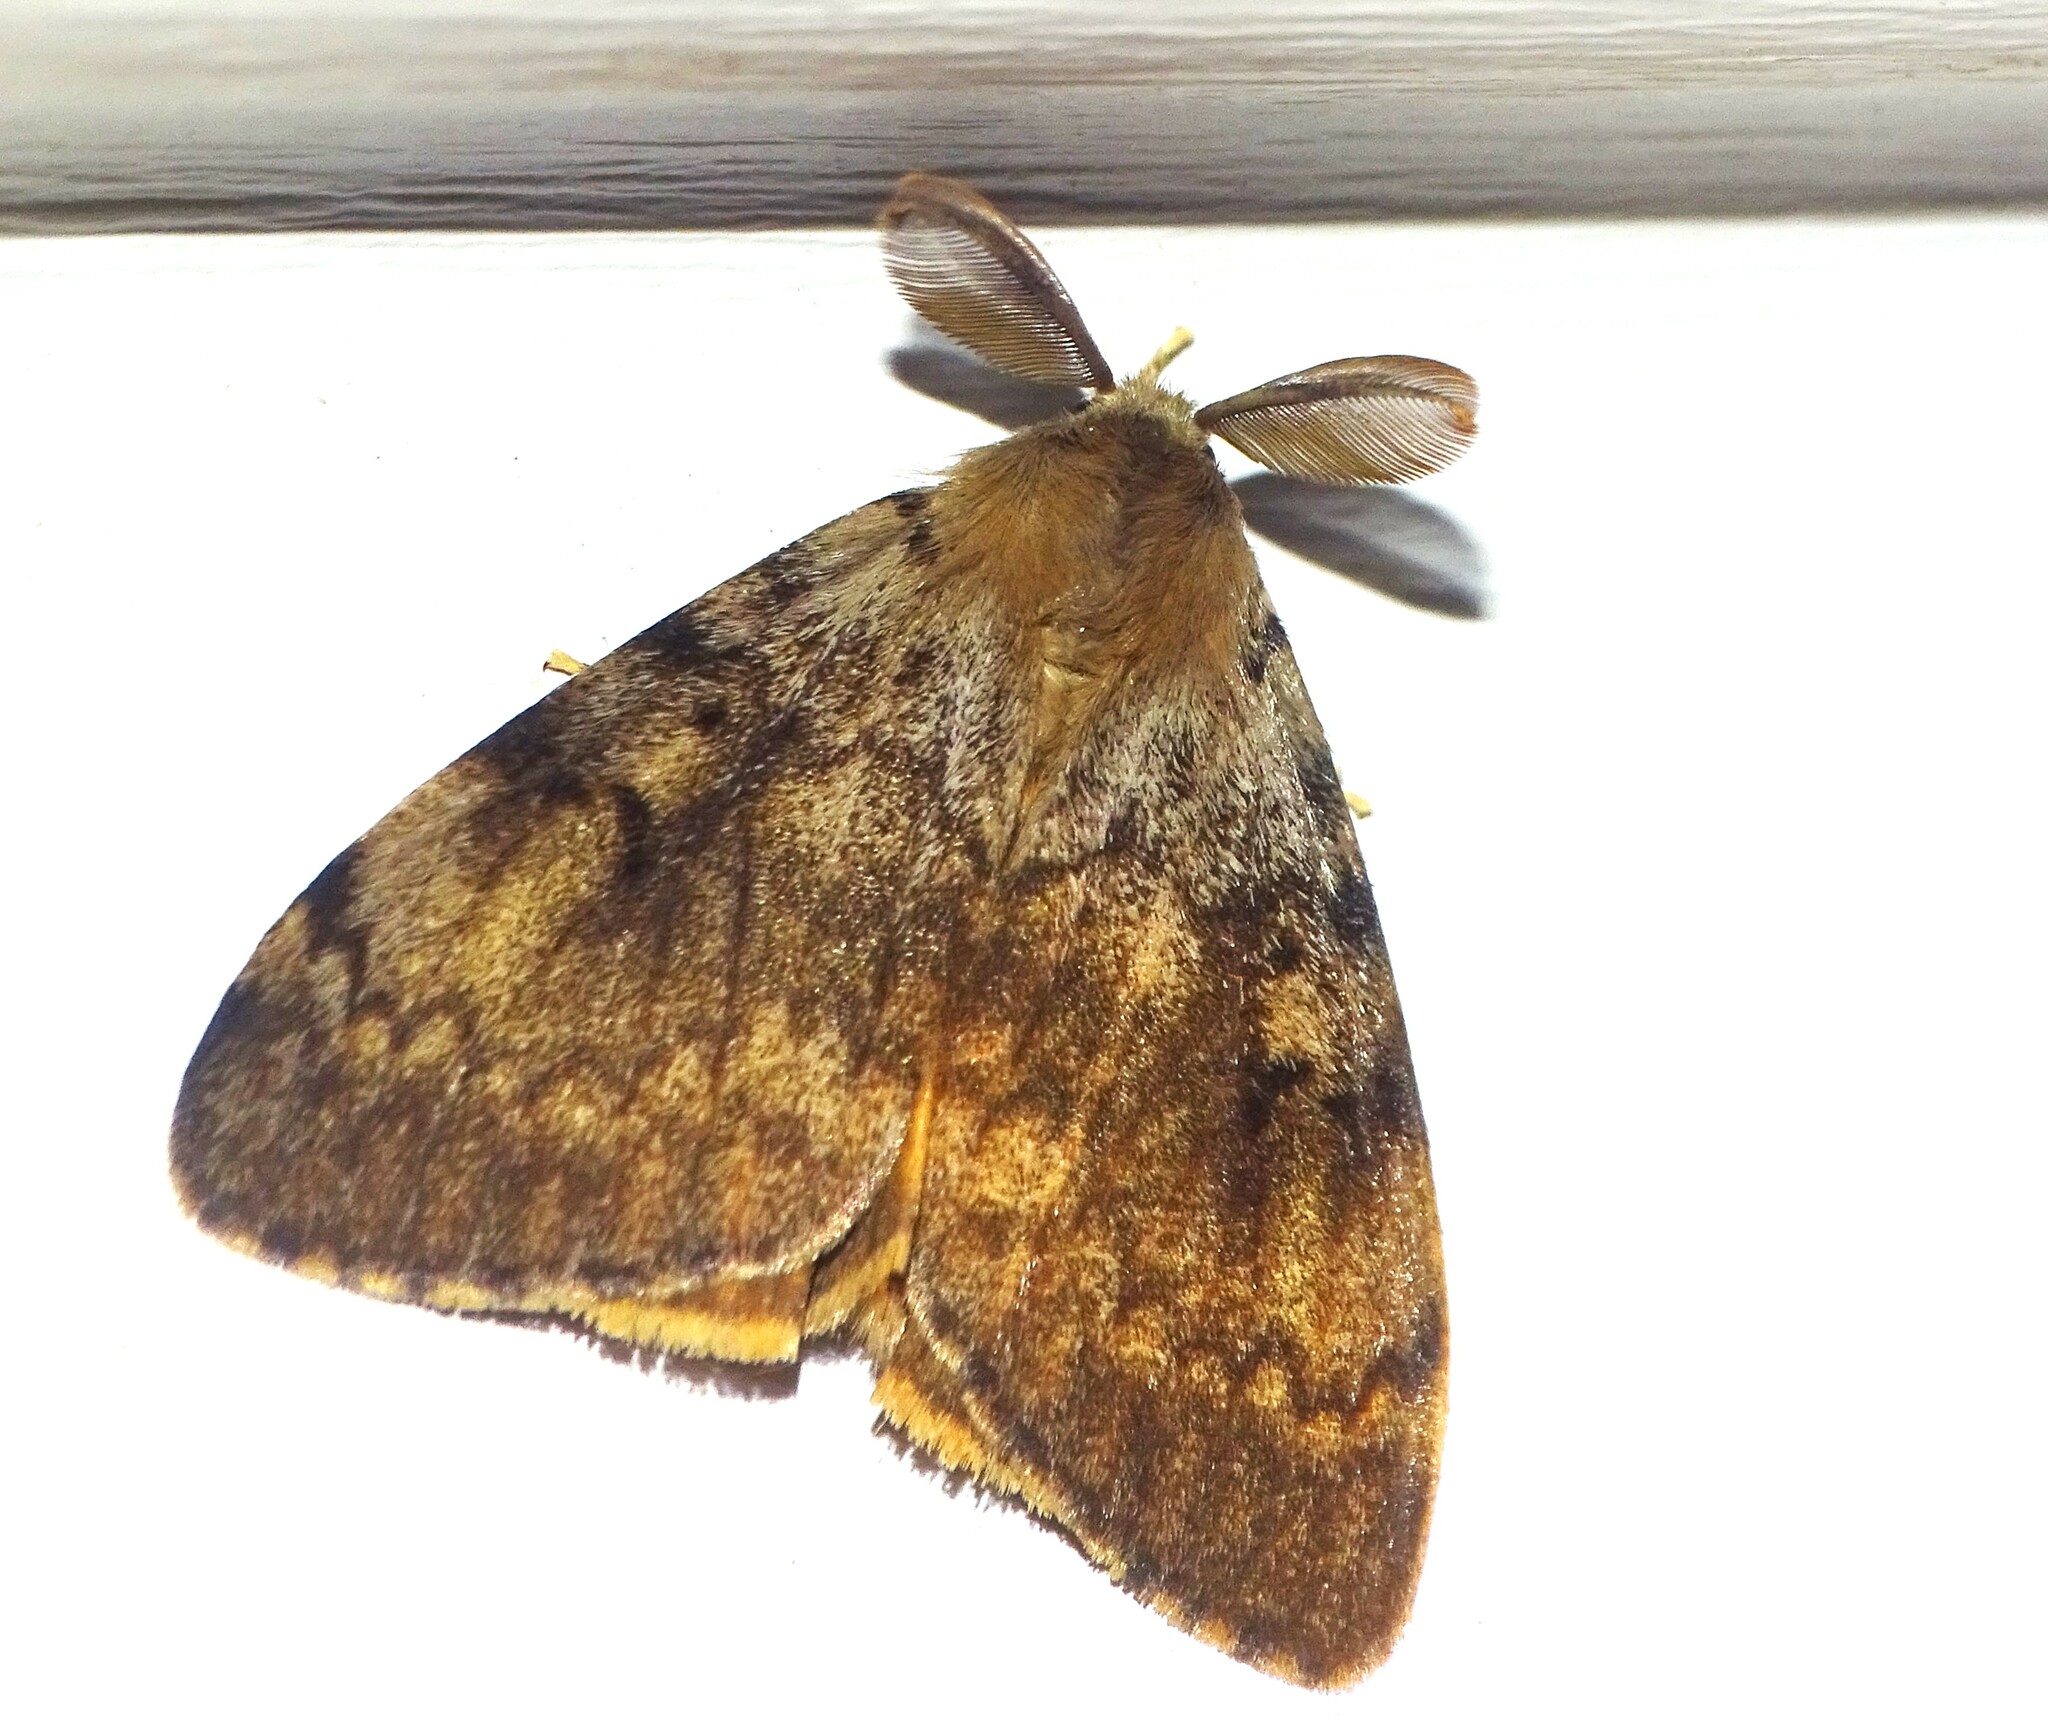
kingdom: Animalia
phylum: Arthropoda
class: Insecta
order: Lepidoptera
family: Erebidae
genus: Lymantria
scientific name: Lymantria dispar
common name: Gypsy moth
